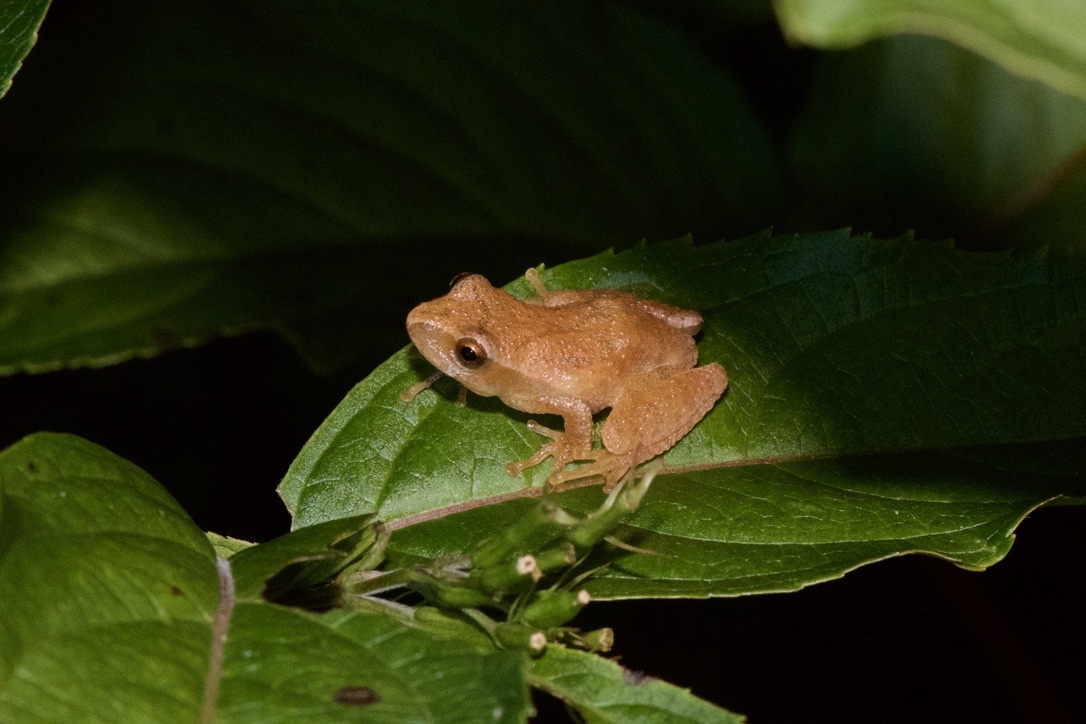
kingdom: Animalia
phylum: Chordata
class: Amphibia
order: Anura
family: Hylidae
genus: Pseudacris
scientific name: Pseudacris crucifer
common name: Spring peeper
